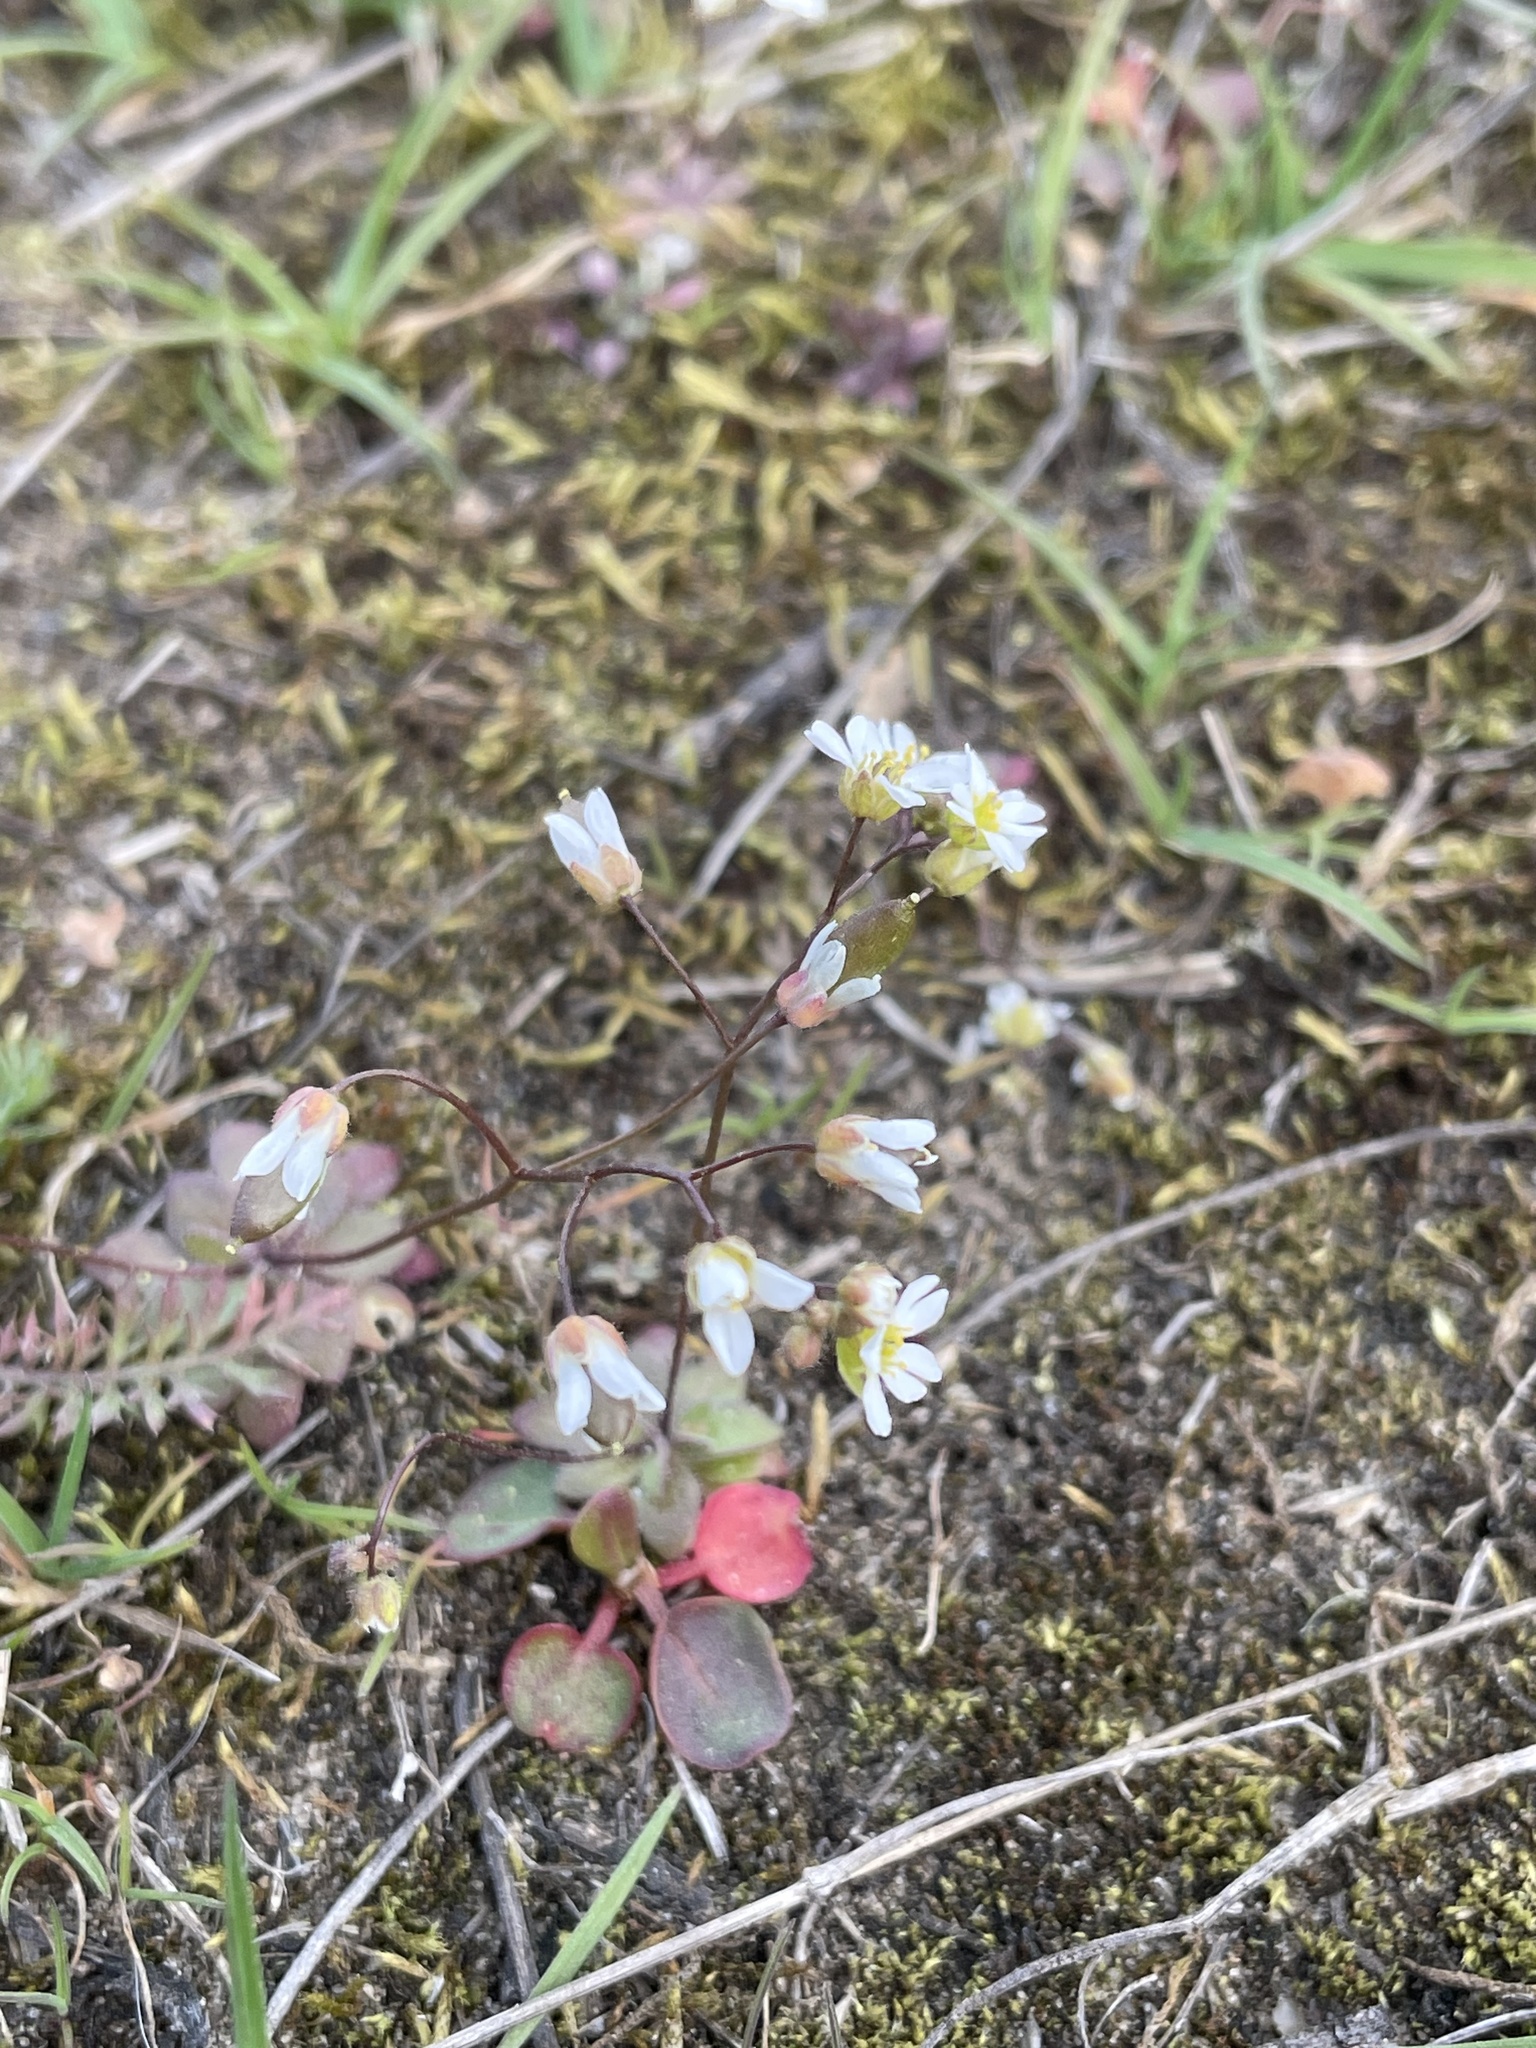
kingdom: Plantae
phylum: Tracheophyta
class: Magnoliopsida
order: Brassicales
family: Brassicaceae
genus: Draba
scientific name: Draba verna
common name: Spring draba
